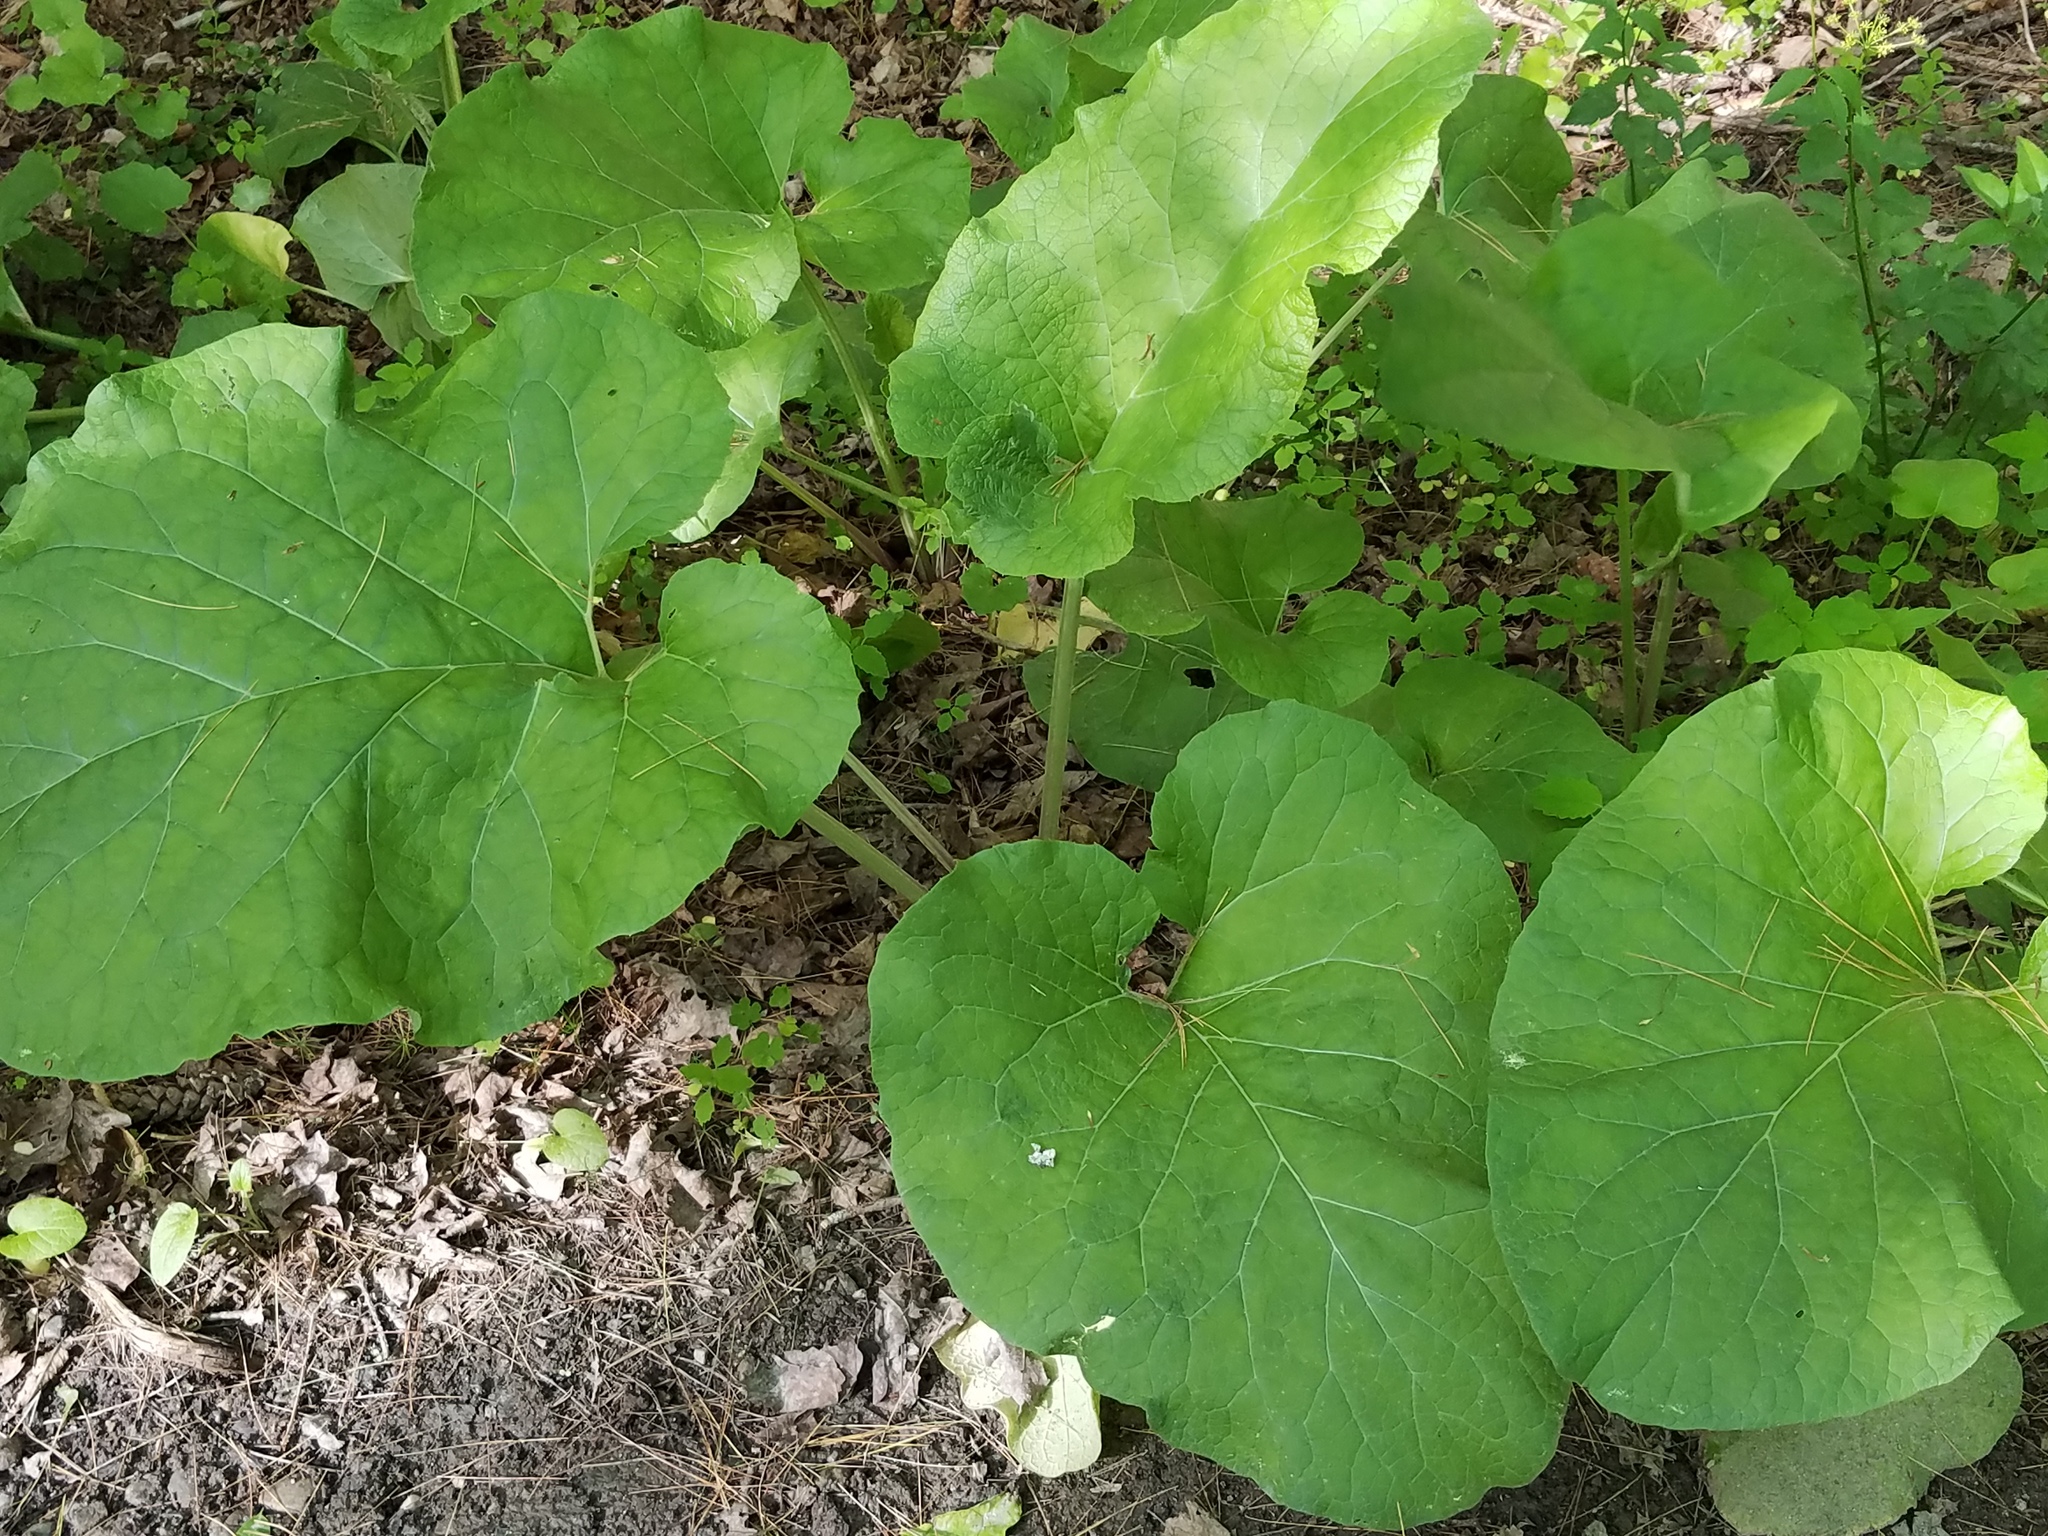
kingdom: Plantae
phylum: Tracheophyta
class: Magnoliopsida
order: Asterales
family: Asteraceae
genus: Arctium
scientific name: Arctium
